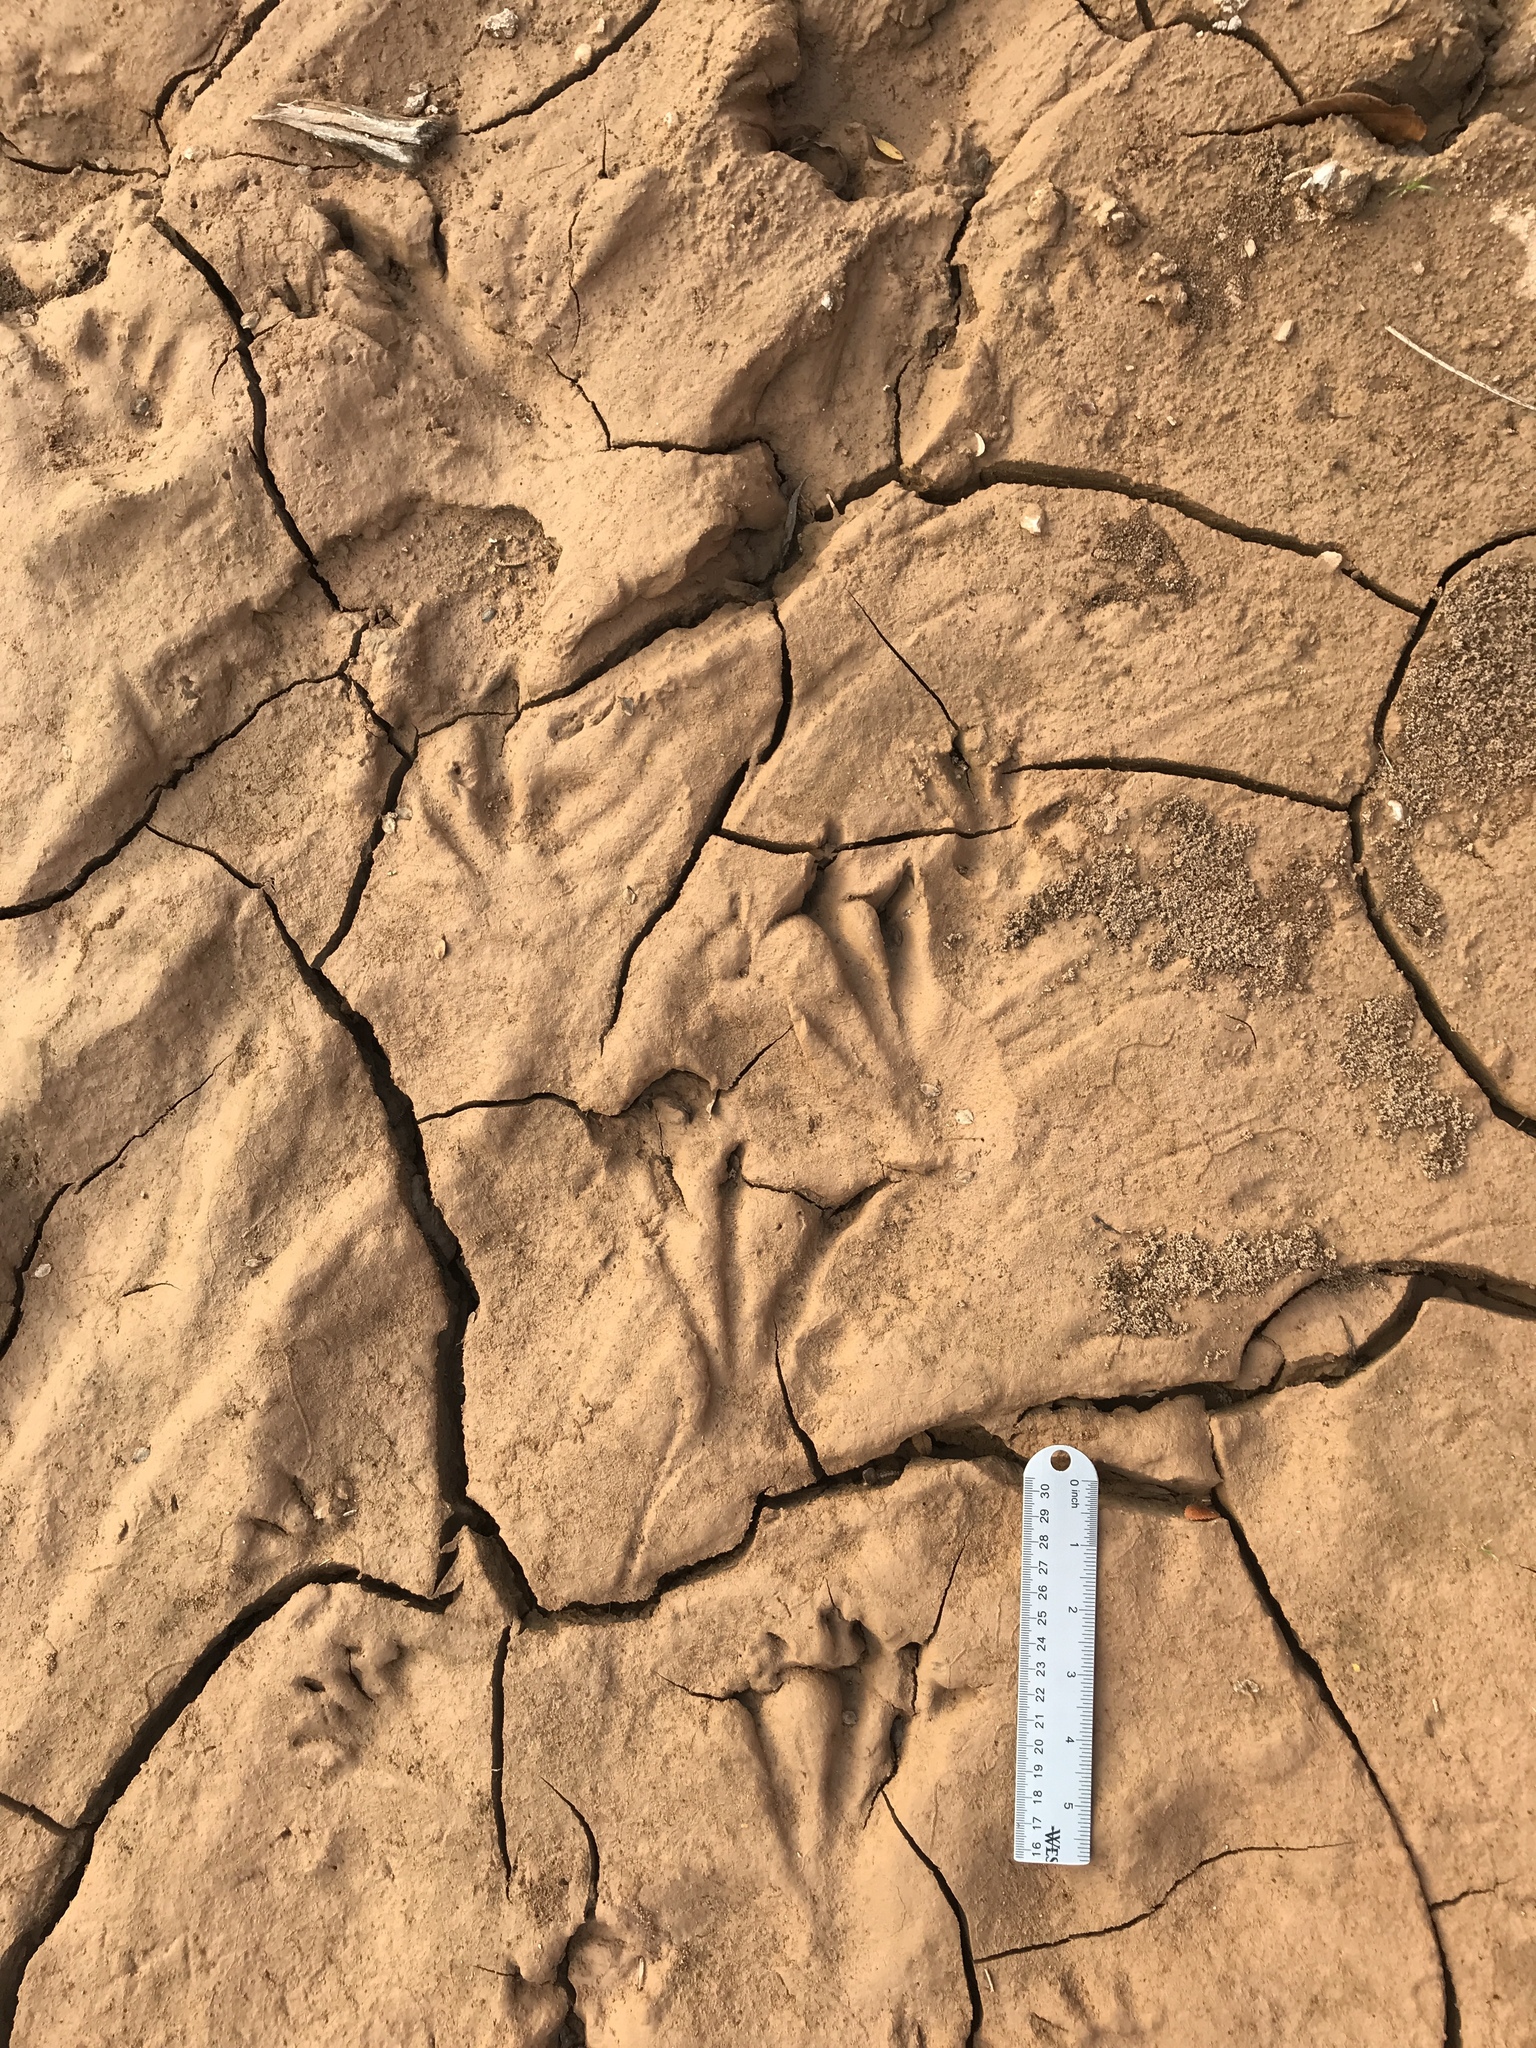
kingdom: Animalia
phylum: Chordata
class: Mammalia
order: Rodentia
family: Castoridae
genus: Castor
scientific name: Castor canadensis
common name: American beaver
